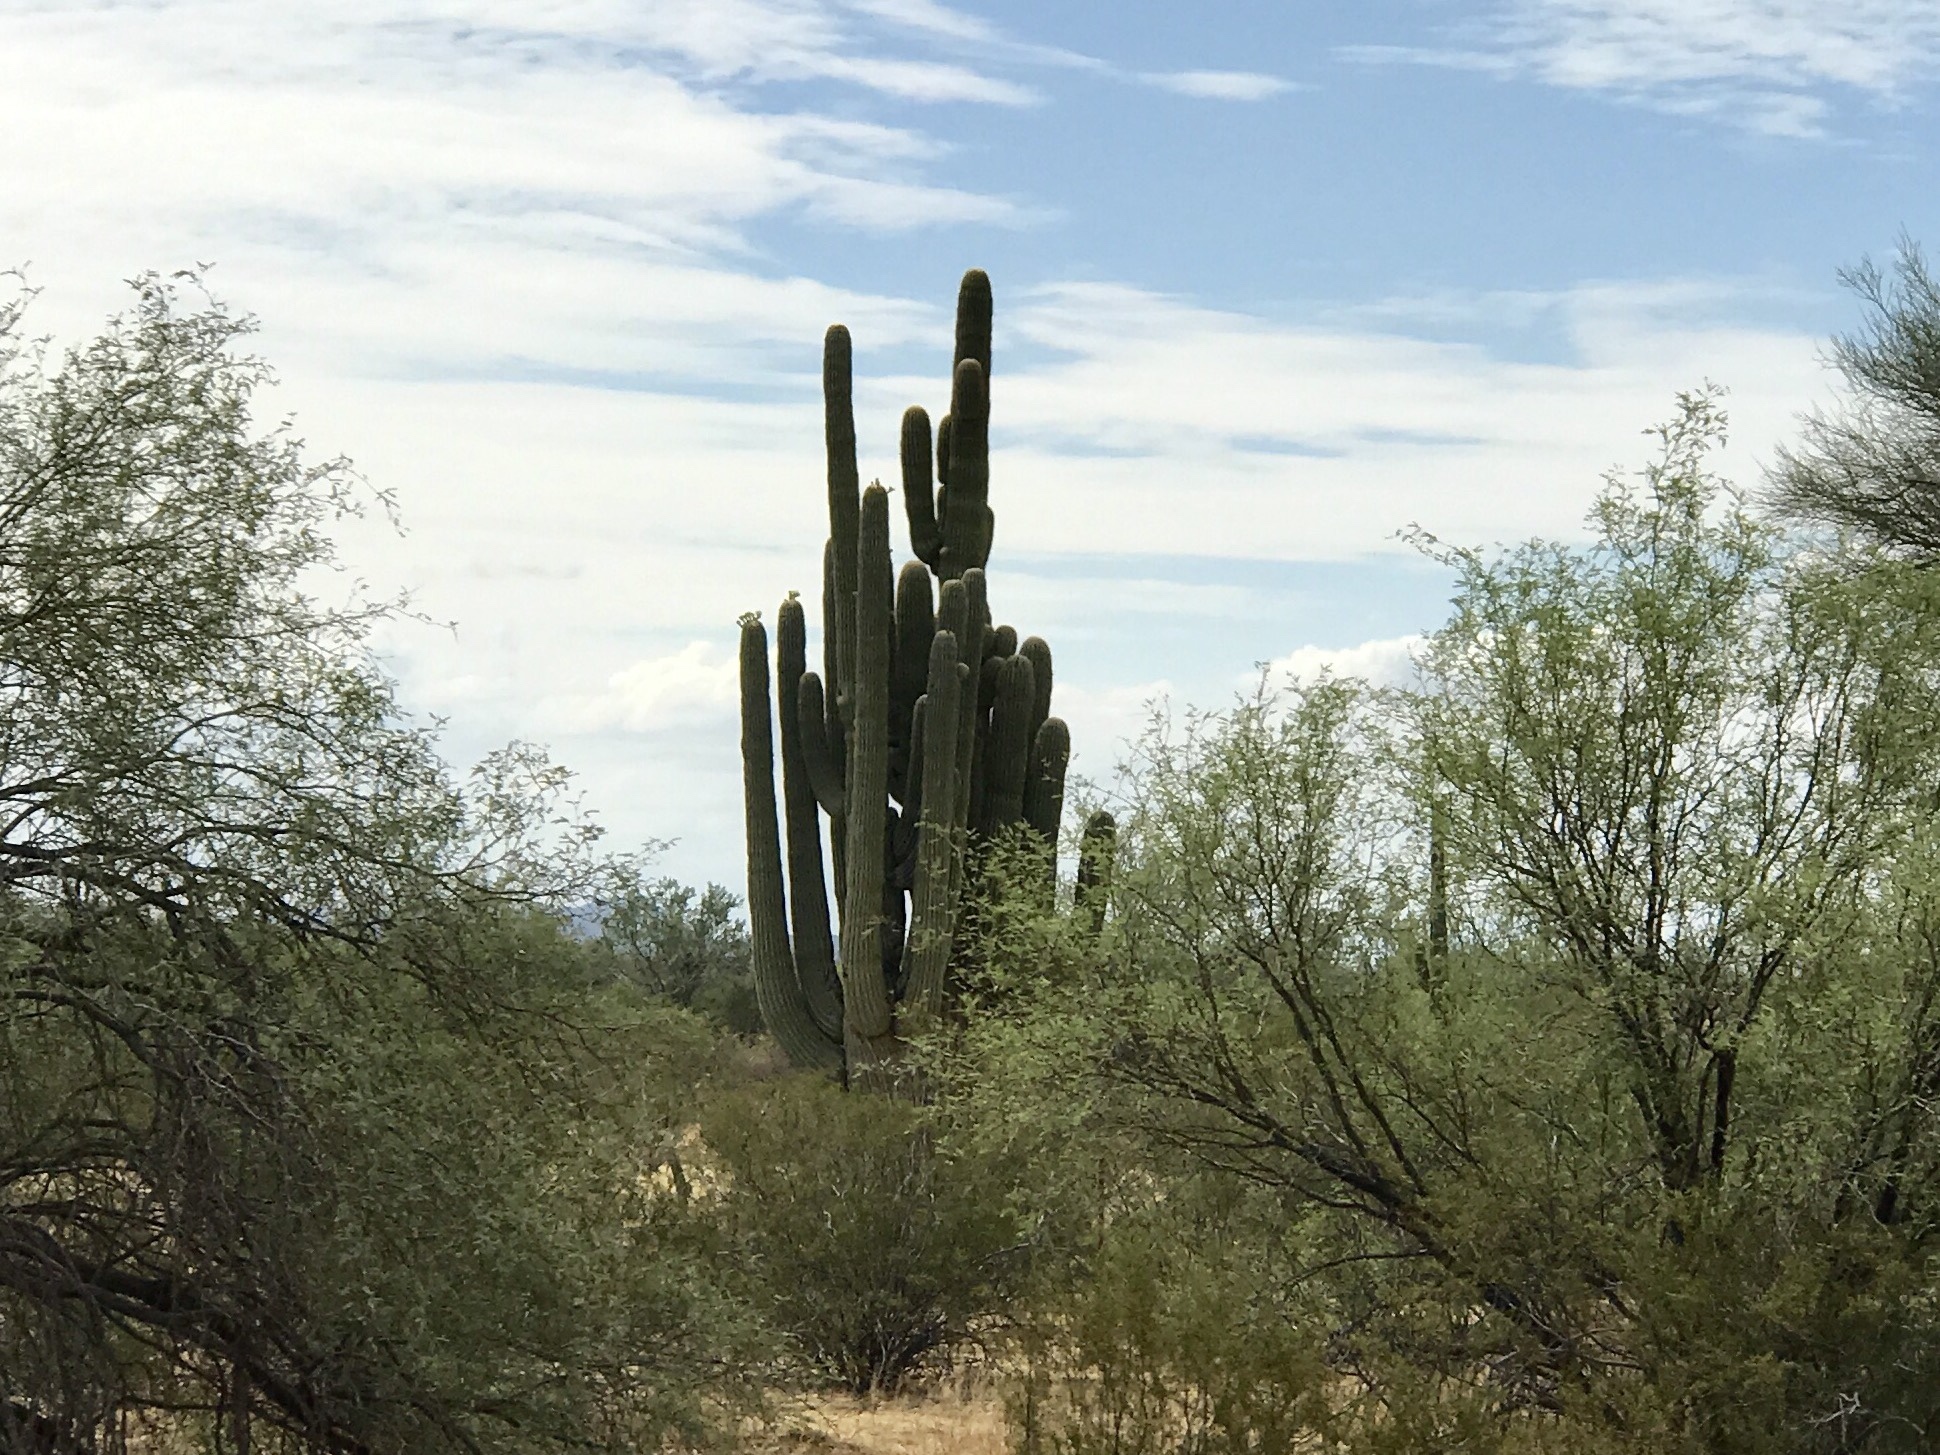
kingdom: Plantae
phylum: Tracheophyta
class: Magnoliopsida
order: Caryophyllales
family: Cactaceae
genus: Carnegiea
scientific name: Carnegiea gigantea
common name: Saguaro
